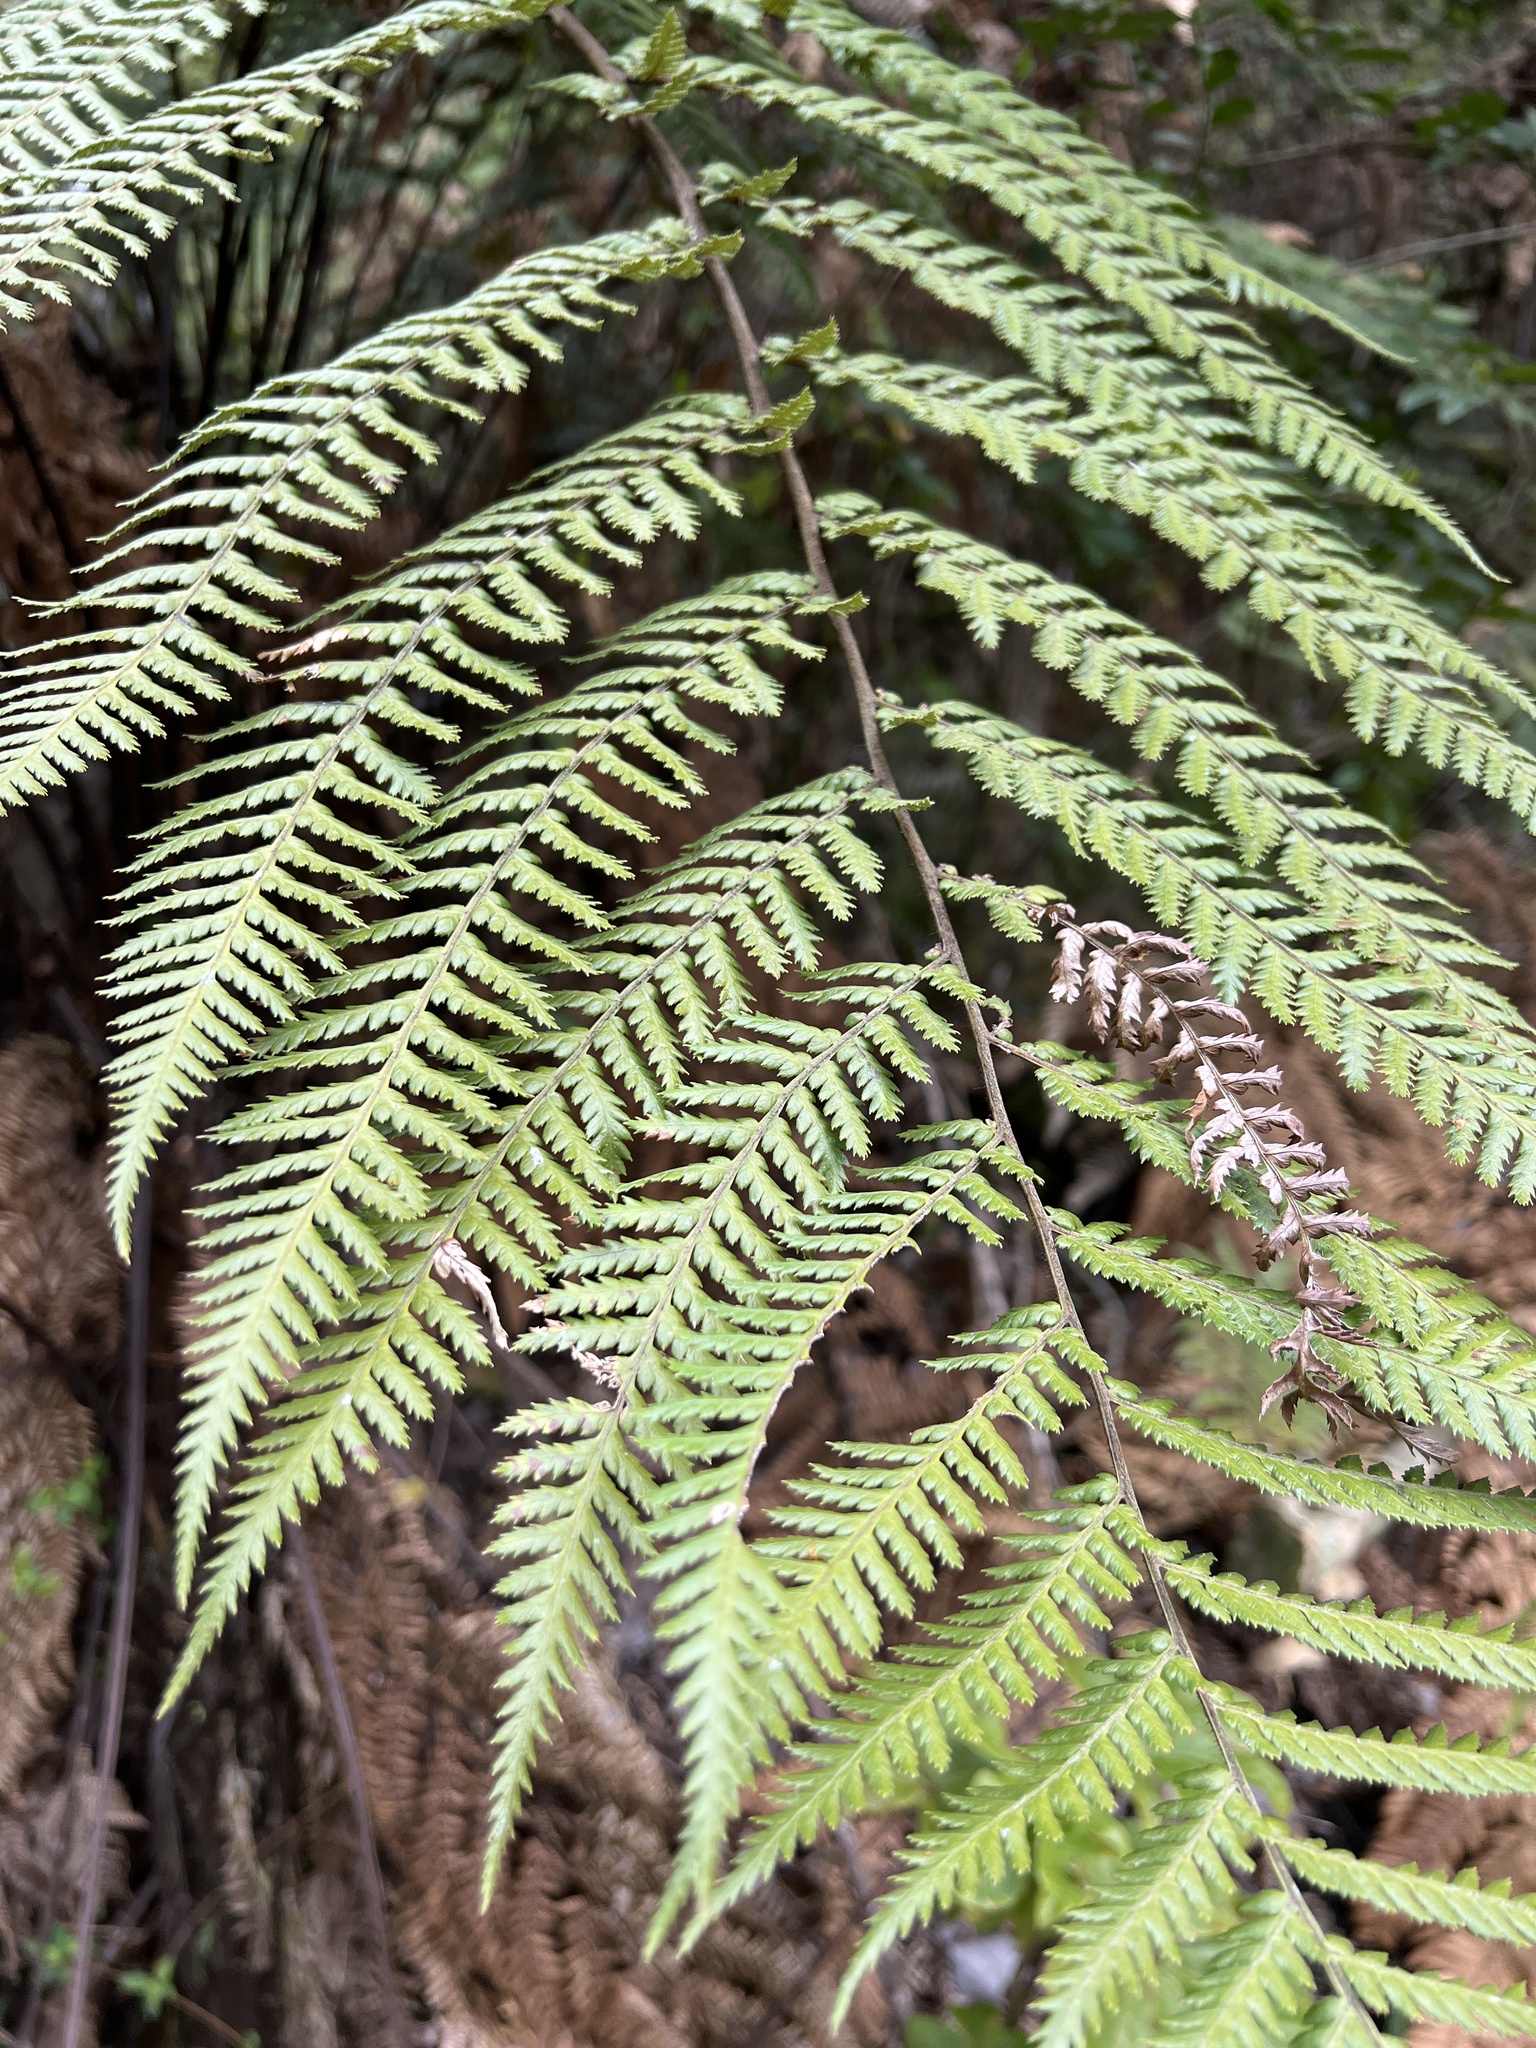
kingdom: Plantae
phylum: Tracheophyta
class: Polypodiopsida
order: Cyatheales
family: Dicksoniaceae
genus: Dicksonia
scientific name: Dicksonia squarrosa
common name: Hard treefern
